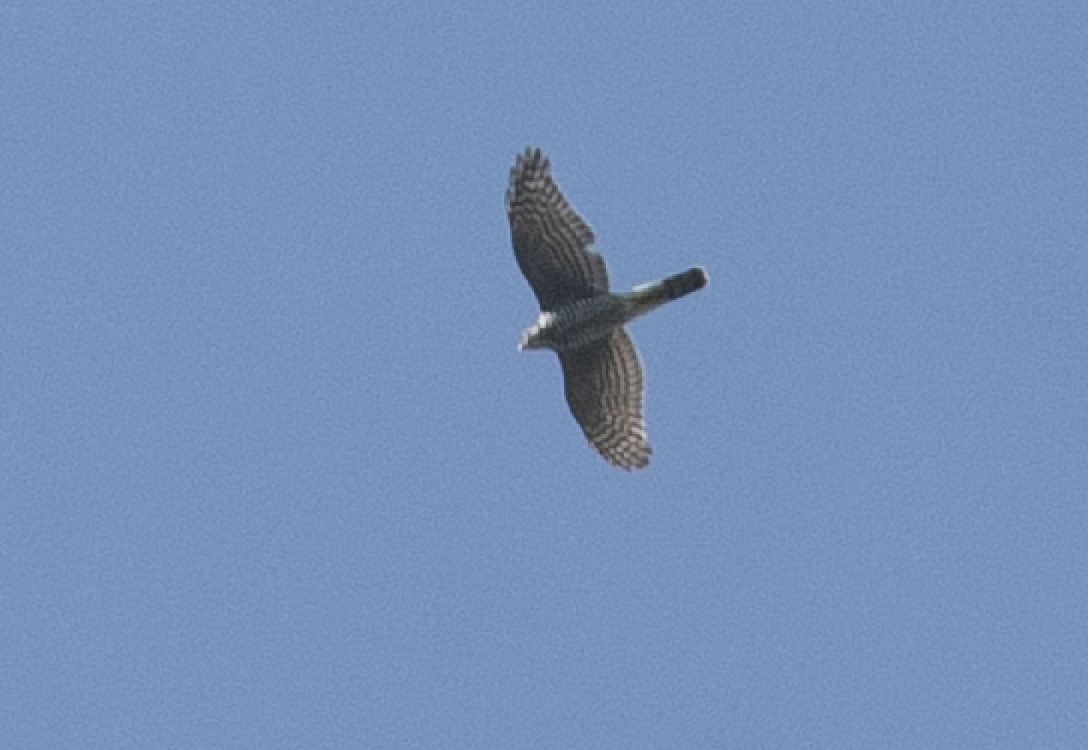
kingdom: Animalia
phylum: Chordata
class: Aves
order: Accipitriformes
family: Accipitridae
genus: Accipiter
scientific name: Accipiter nisus
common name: Eurasian sparrowhawk
